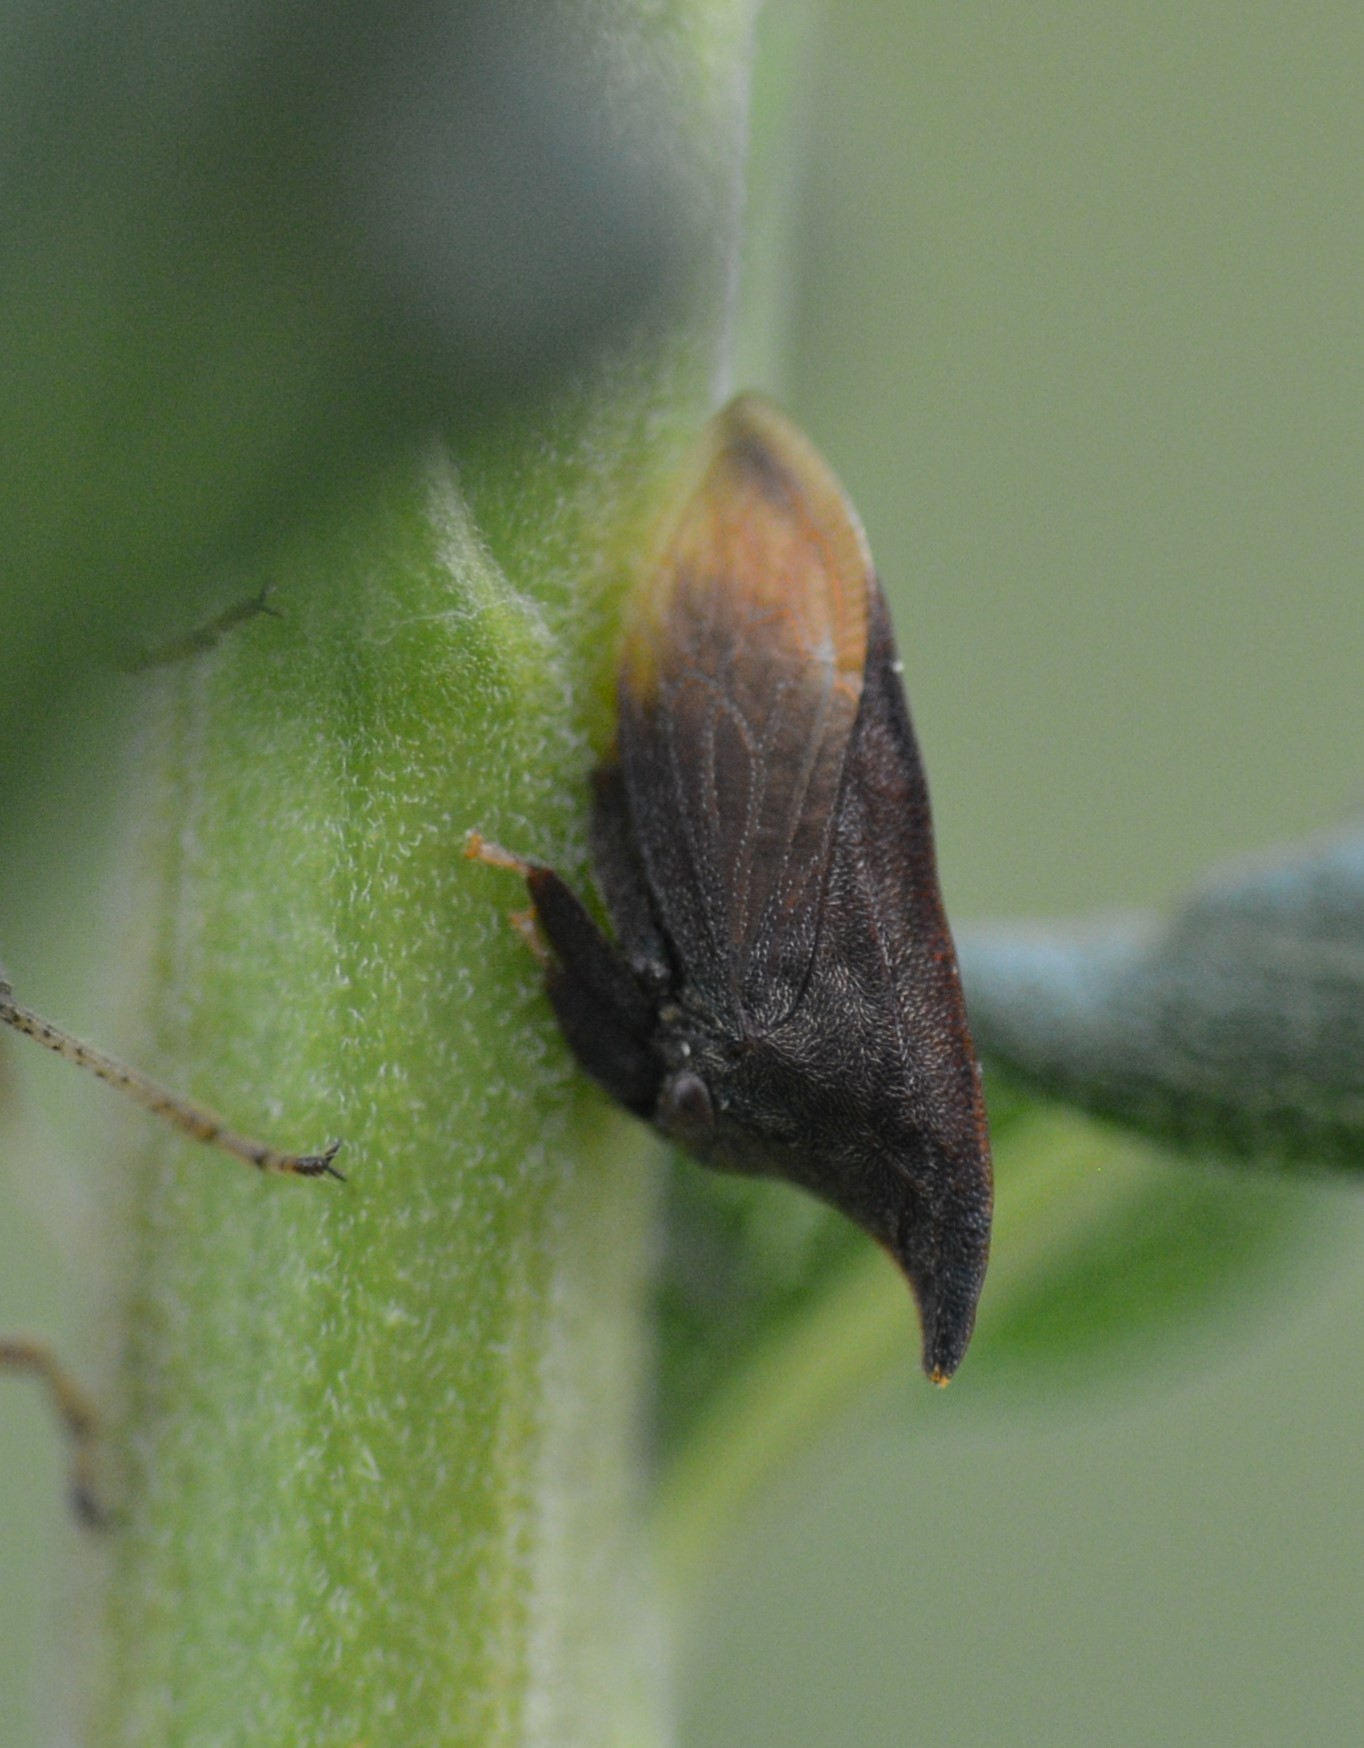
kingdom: Animalia
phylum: Arthropoda
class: Insecta
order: Hemiptera
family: Membracidae
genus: Enchenopa
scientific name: Enchenopa latipes
